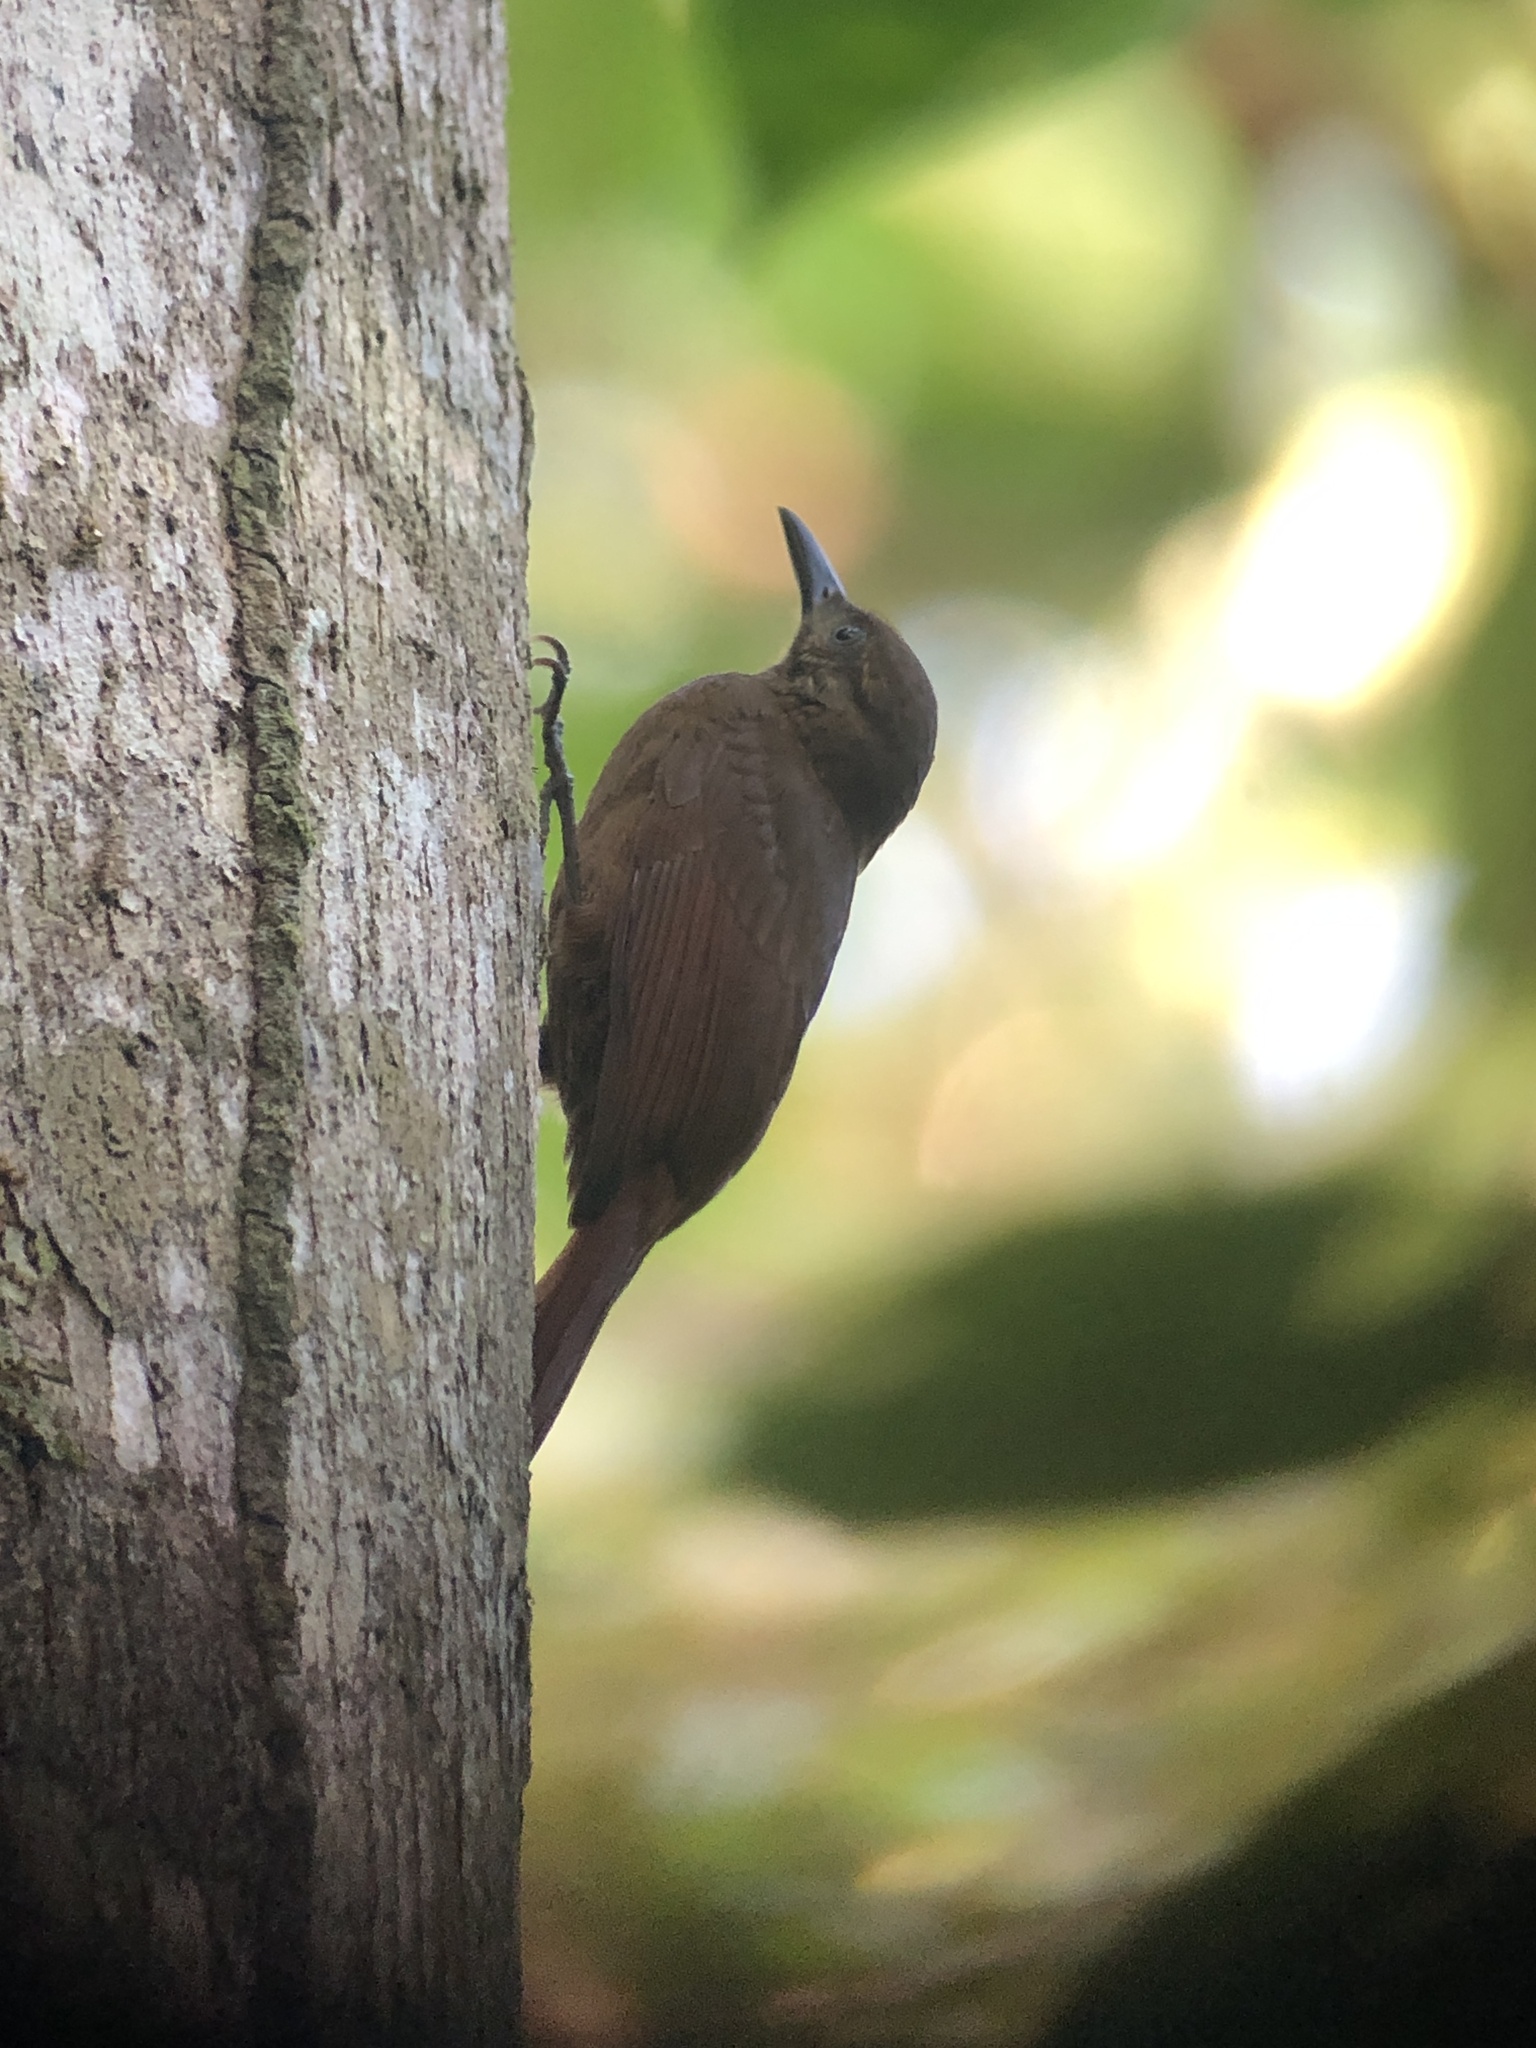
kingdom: Animalia
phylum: Chordata
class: Aves
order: Passeriformes
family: Furnariidae
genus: Dendrocincla
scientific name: Dendrocincla fuliginosa
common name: Plain-brown woodcreeper
